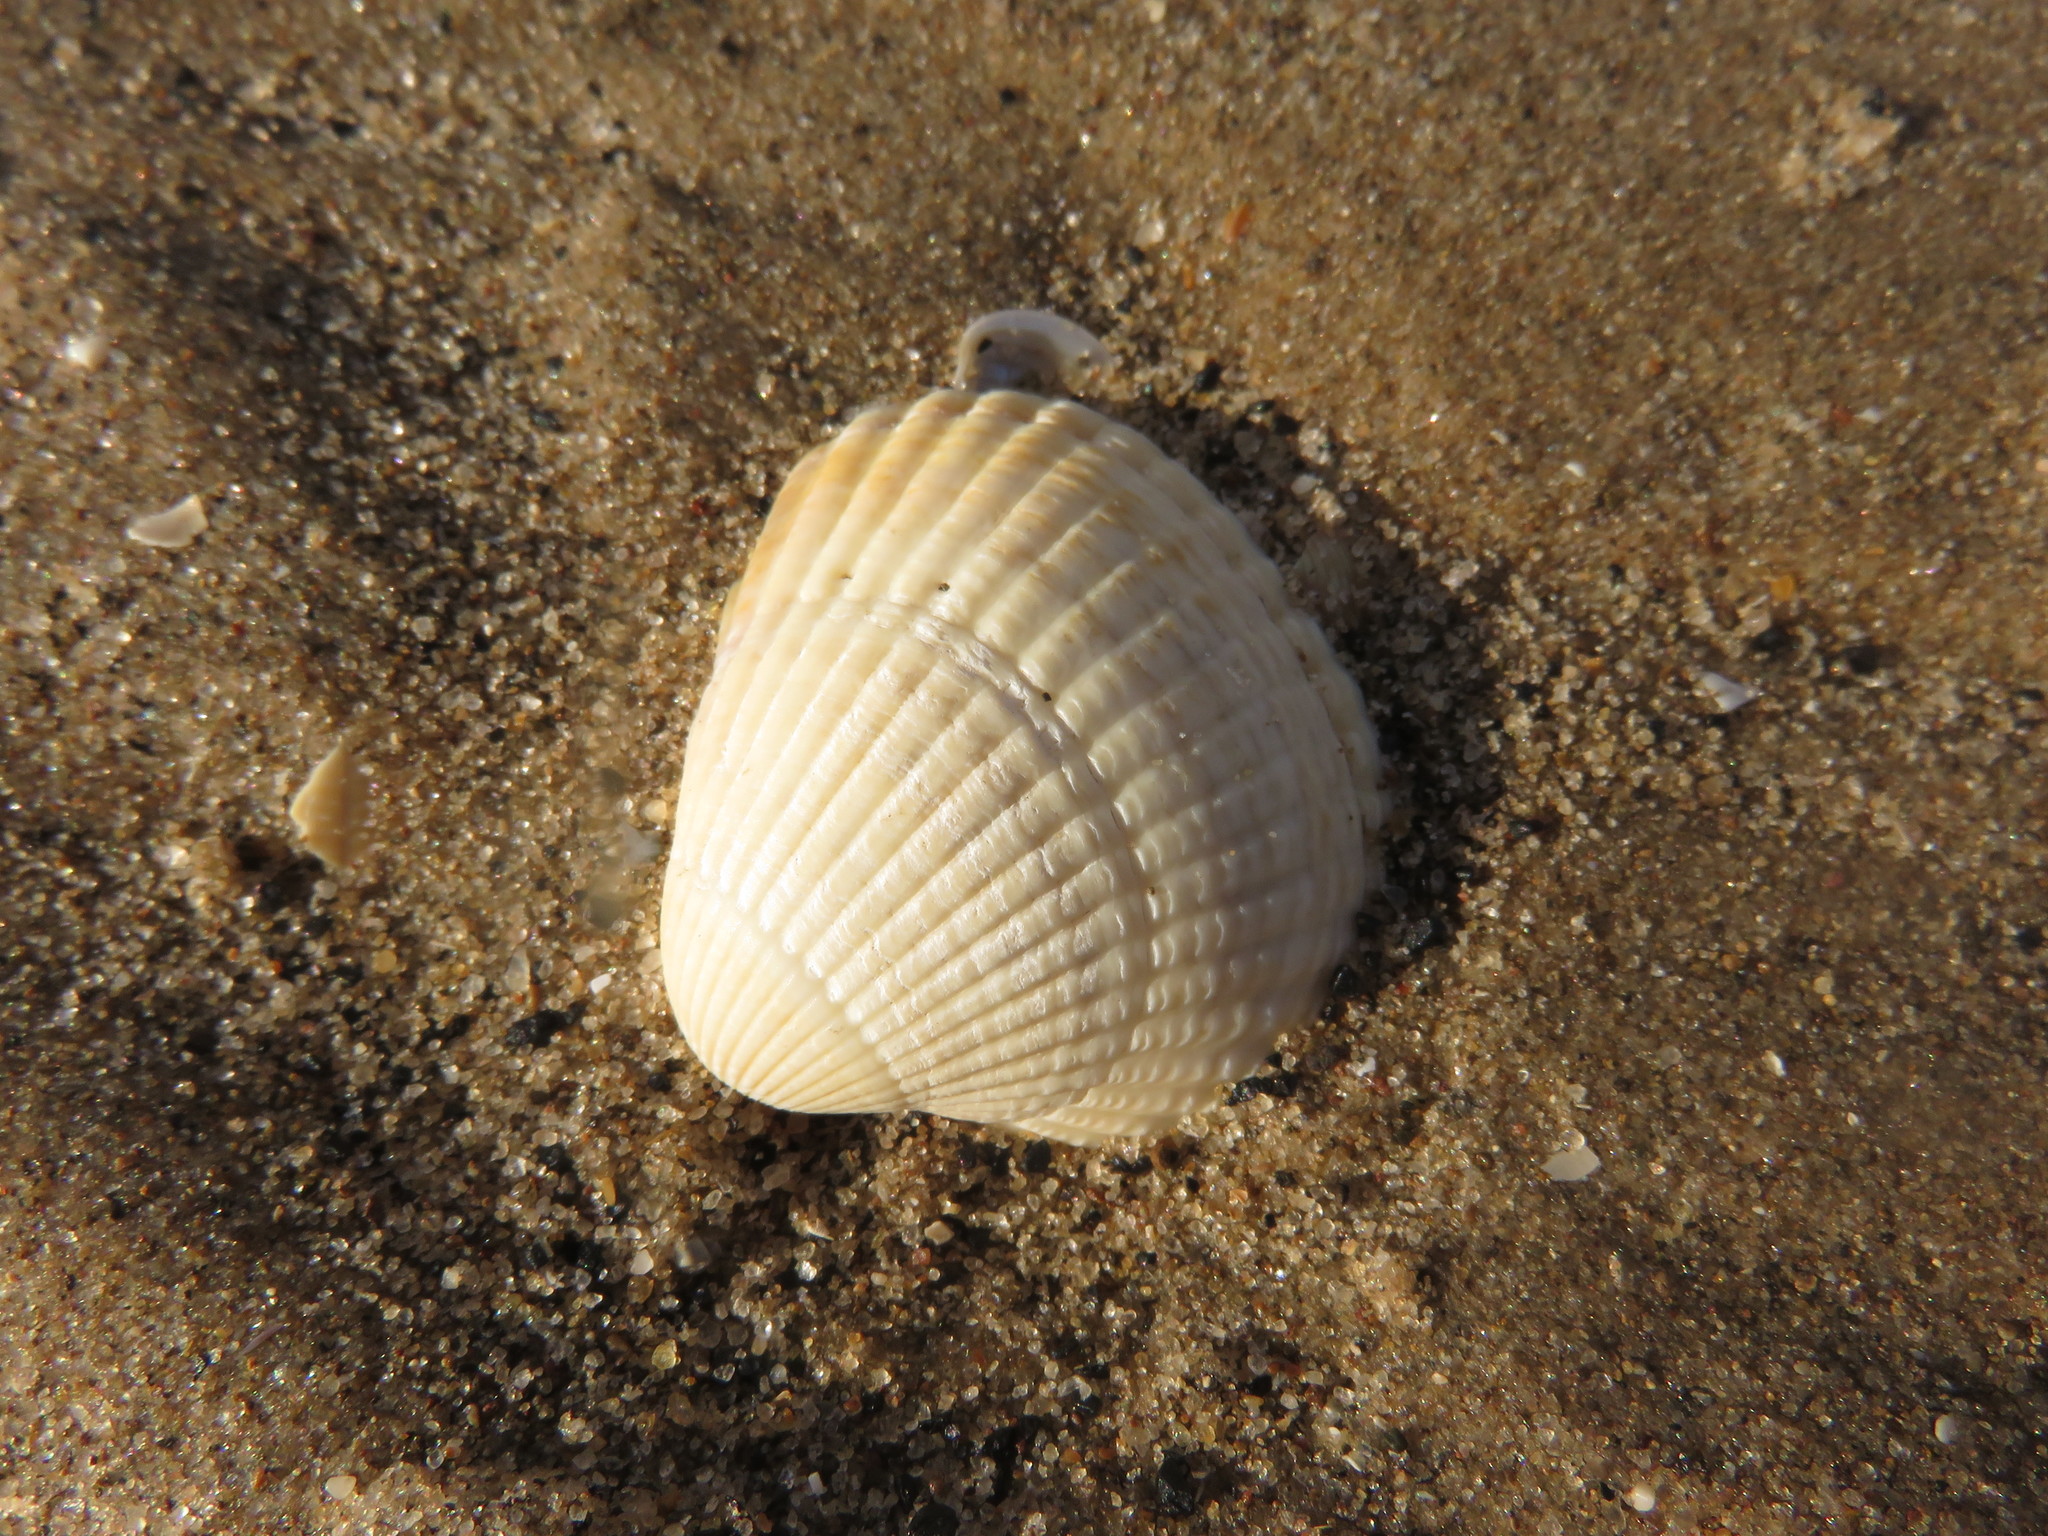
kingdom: Animalia
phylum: Mollusca
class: Bivalvia
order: Cardiida
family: Cardiidae
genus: Cerastoderma
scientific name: Cerastoderma edule
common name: Common cockle
